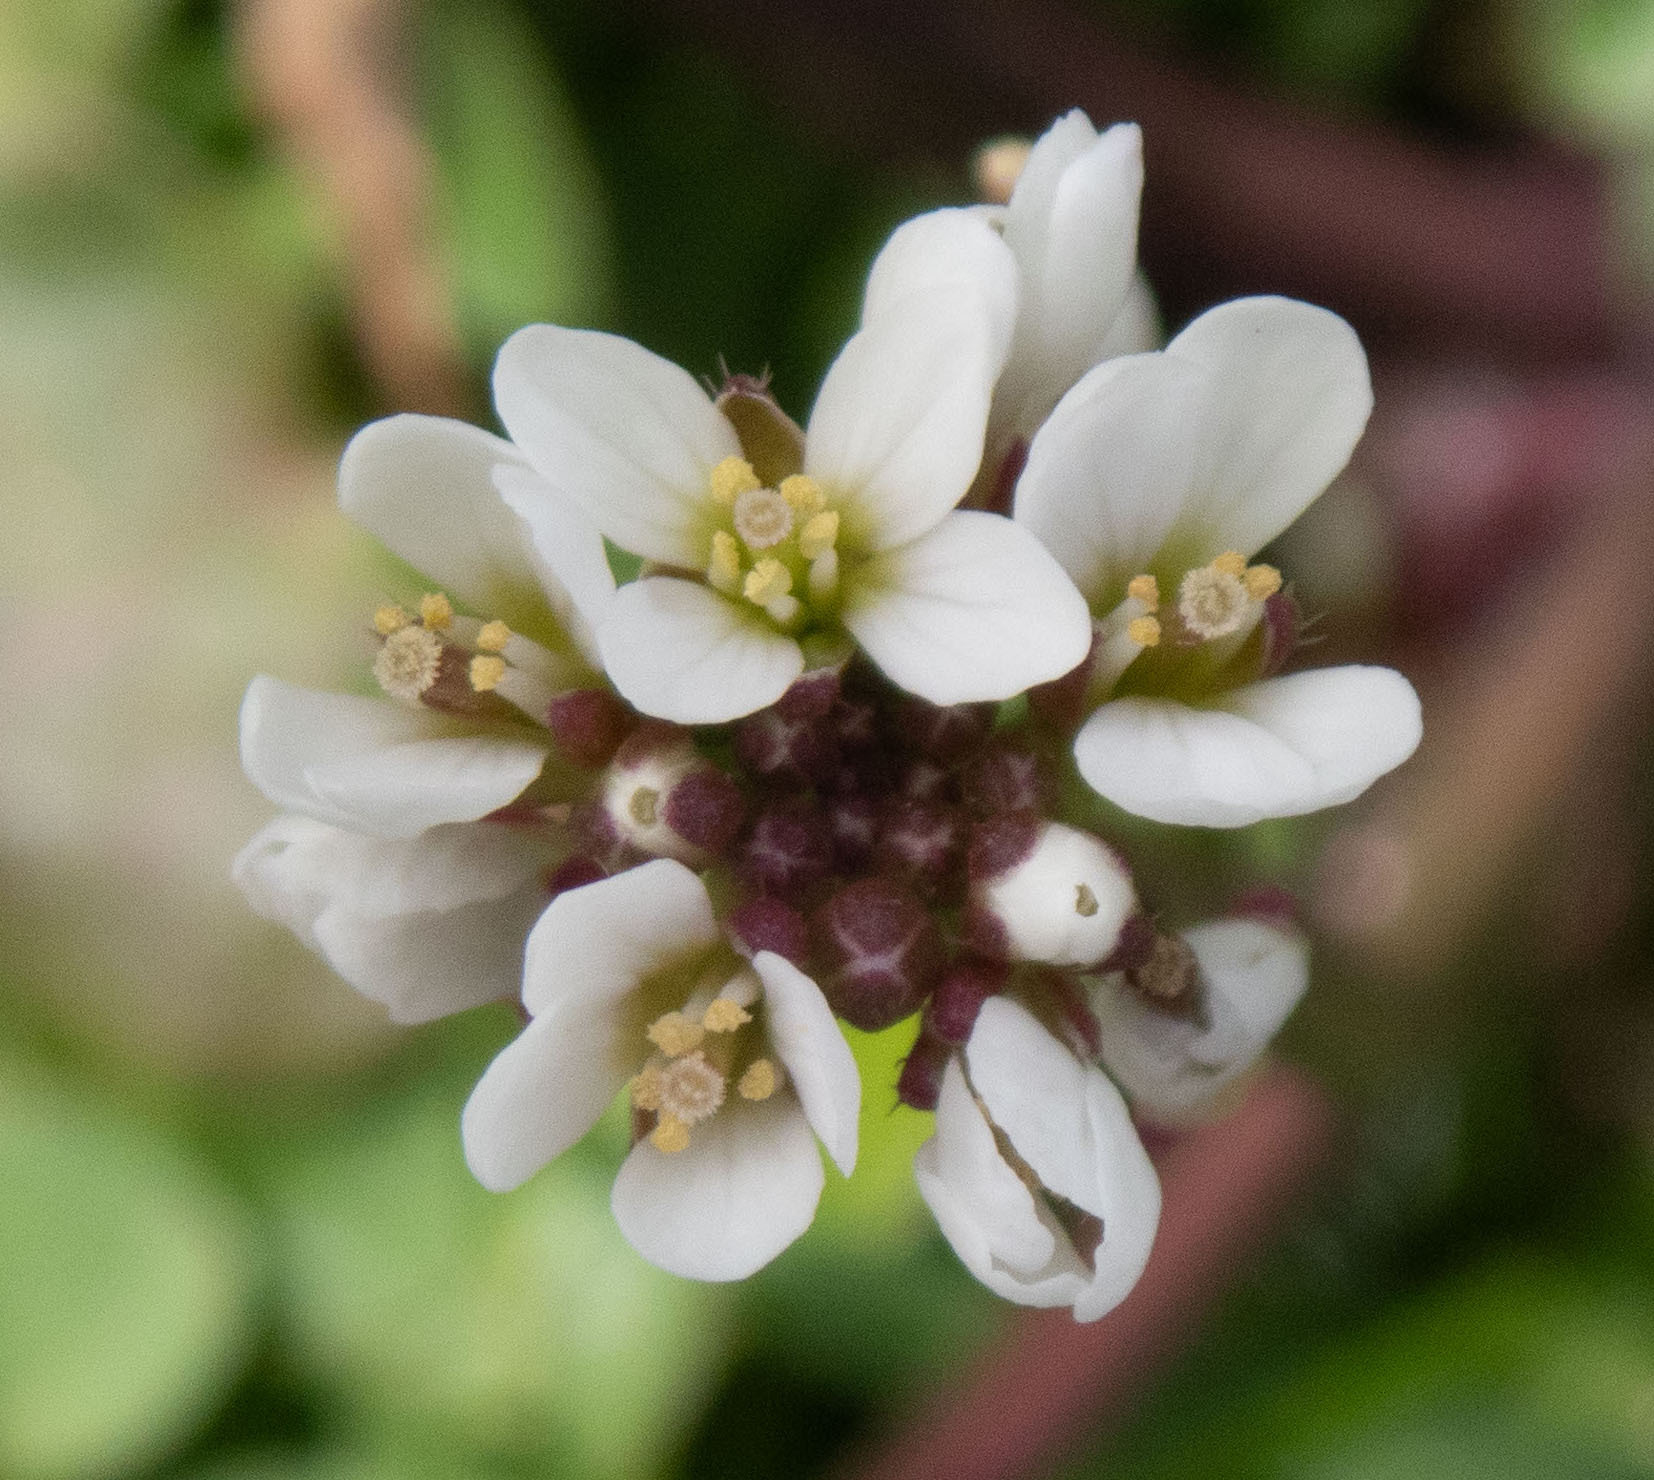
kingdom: Plantae
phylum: Tracheophyta
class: Magnoliopsida
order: Brassicales
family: Brassicaceae
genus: Cardamine
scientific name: Cardamine hirsuta
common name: Hairy bittercress
